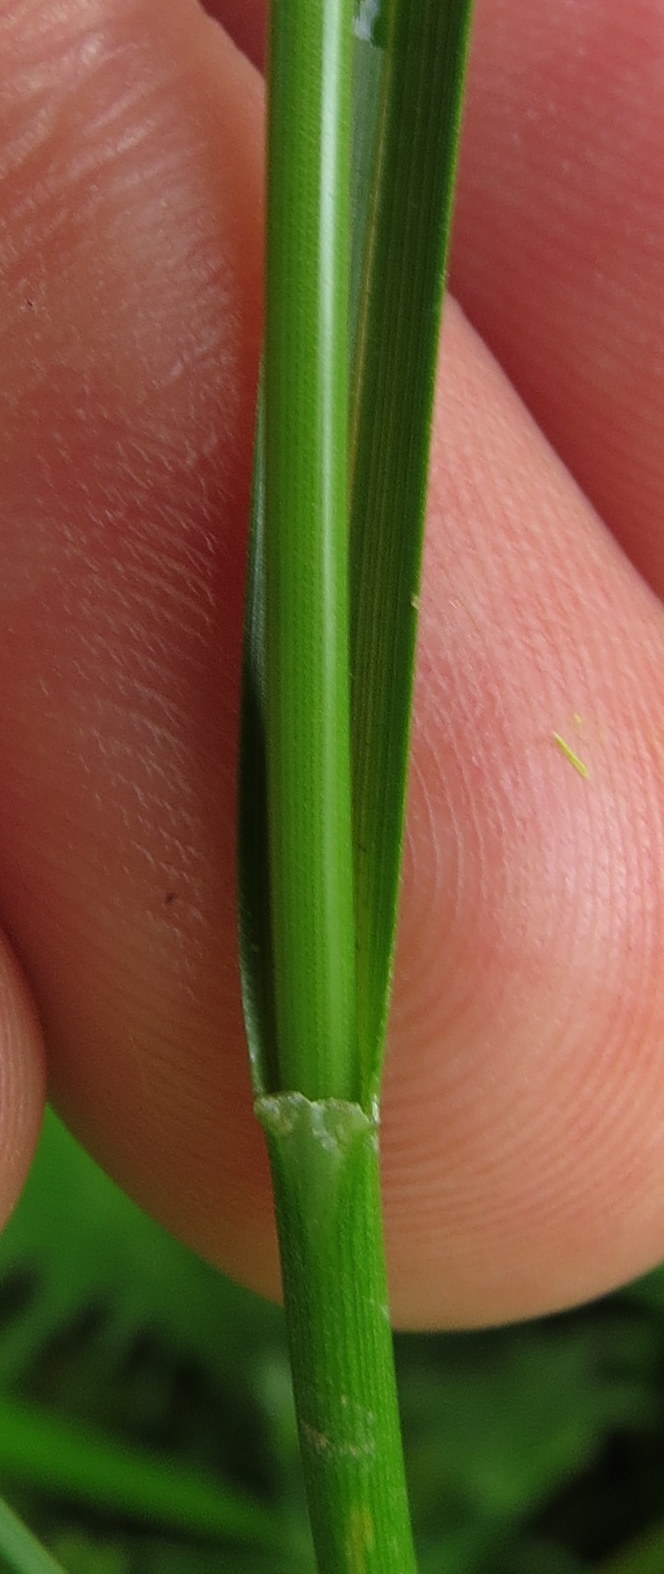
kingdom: Plantae
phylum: Tracheophyta
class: Liliopsida
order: Poales
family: Cyperaceae
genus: Scirpus
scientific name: Scirpus pendulus
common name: Nodding bulrush
